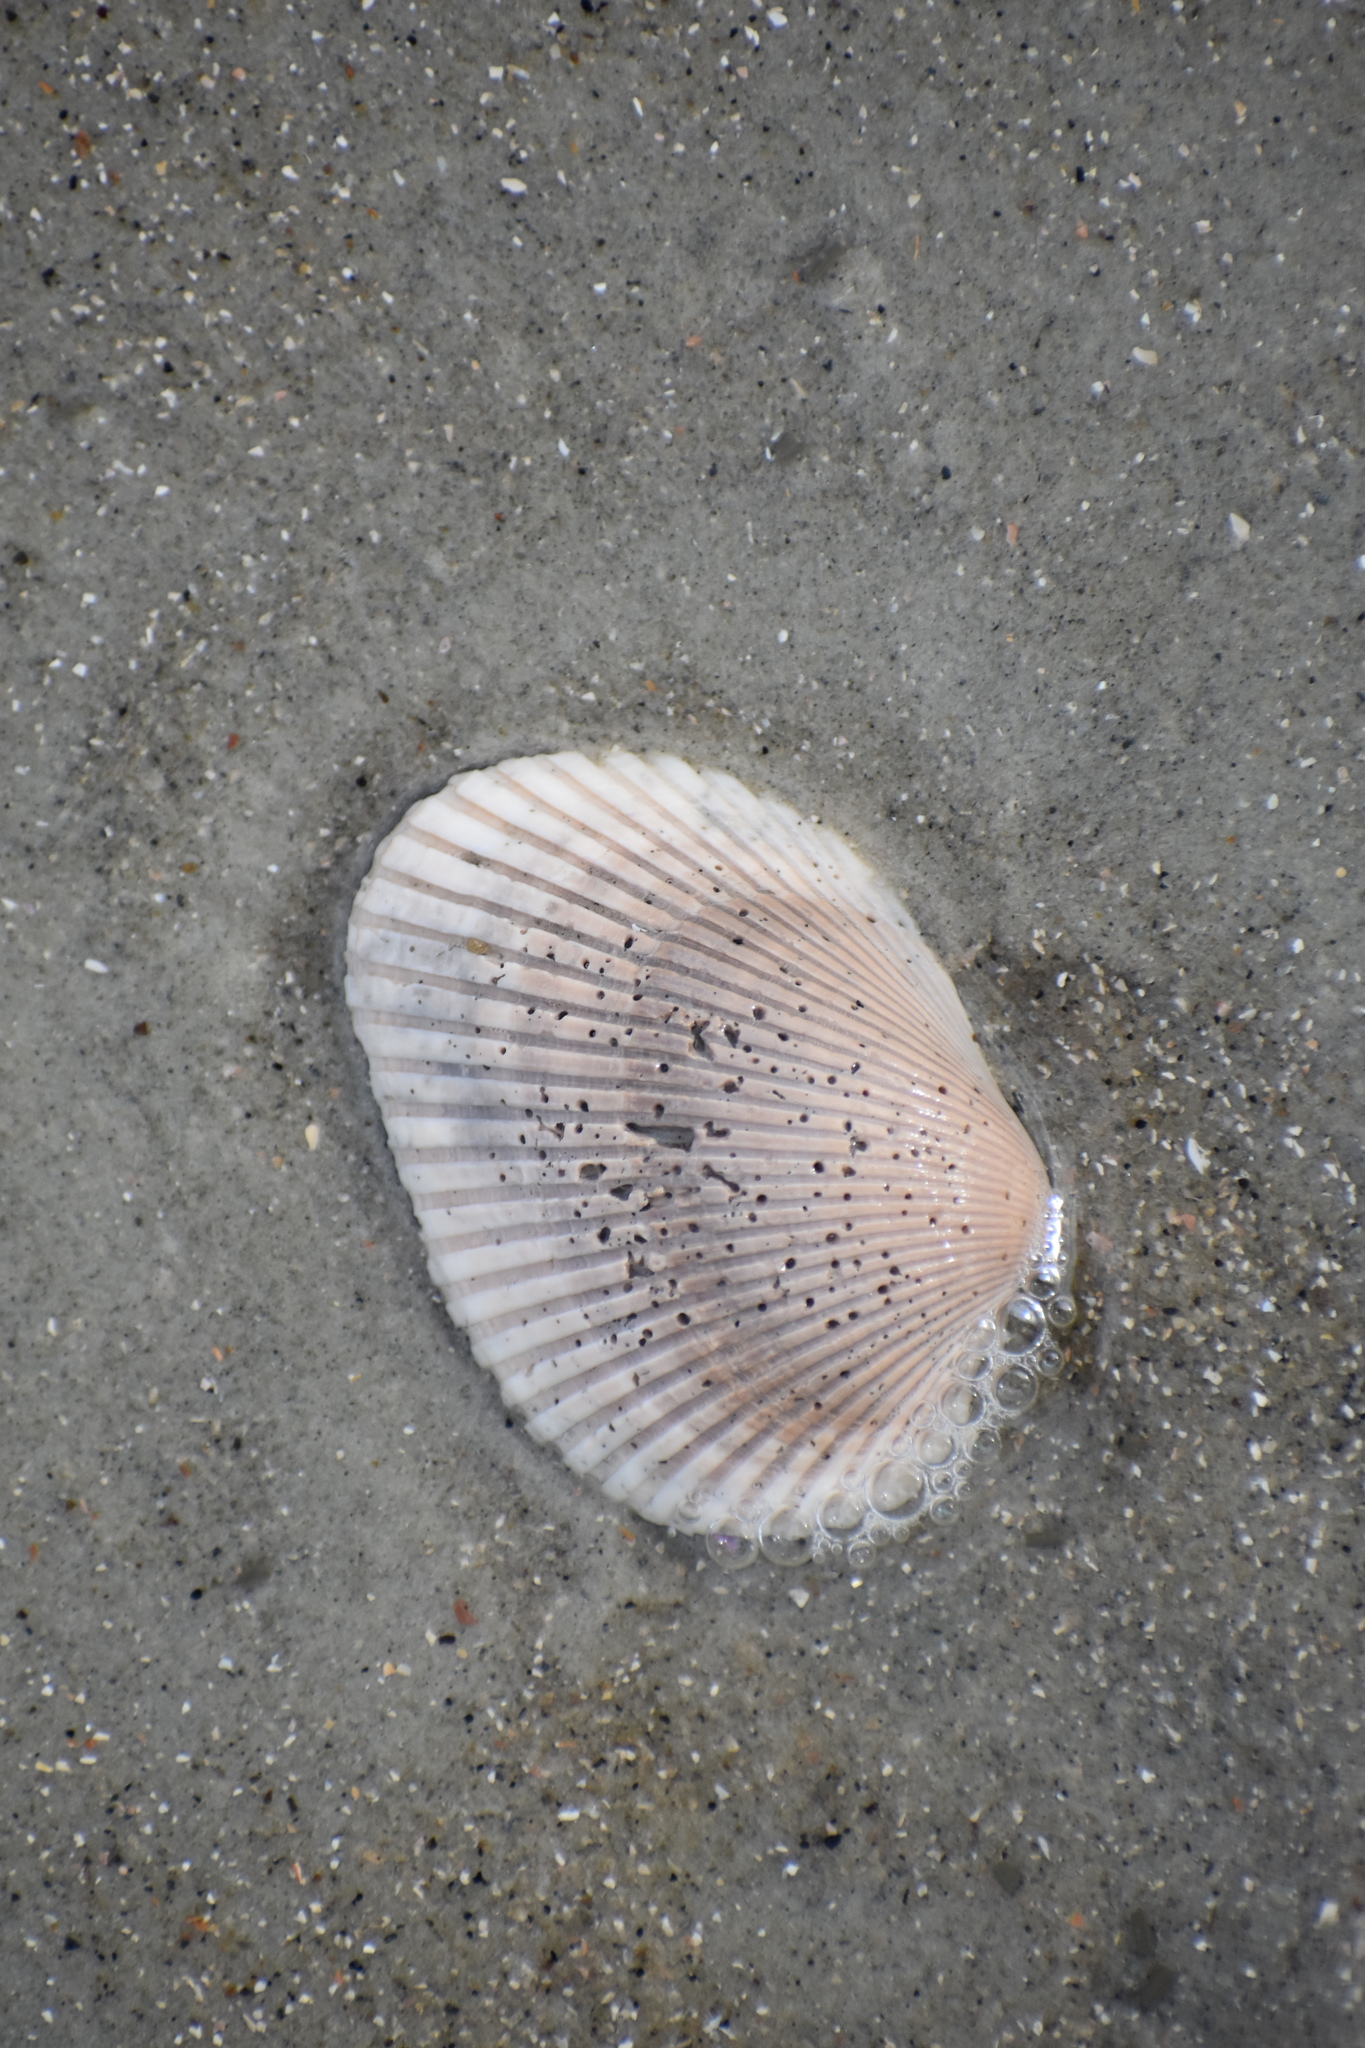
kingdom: Animalia
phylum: Mollusca
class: Bivalvia
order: Arcida
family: Arcidae
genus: Lunarca
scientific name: Lunarca ovalis
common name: Blood ark
